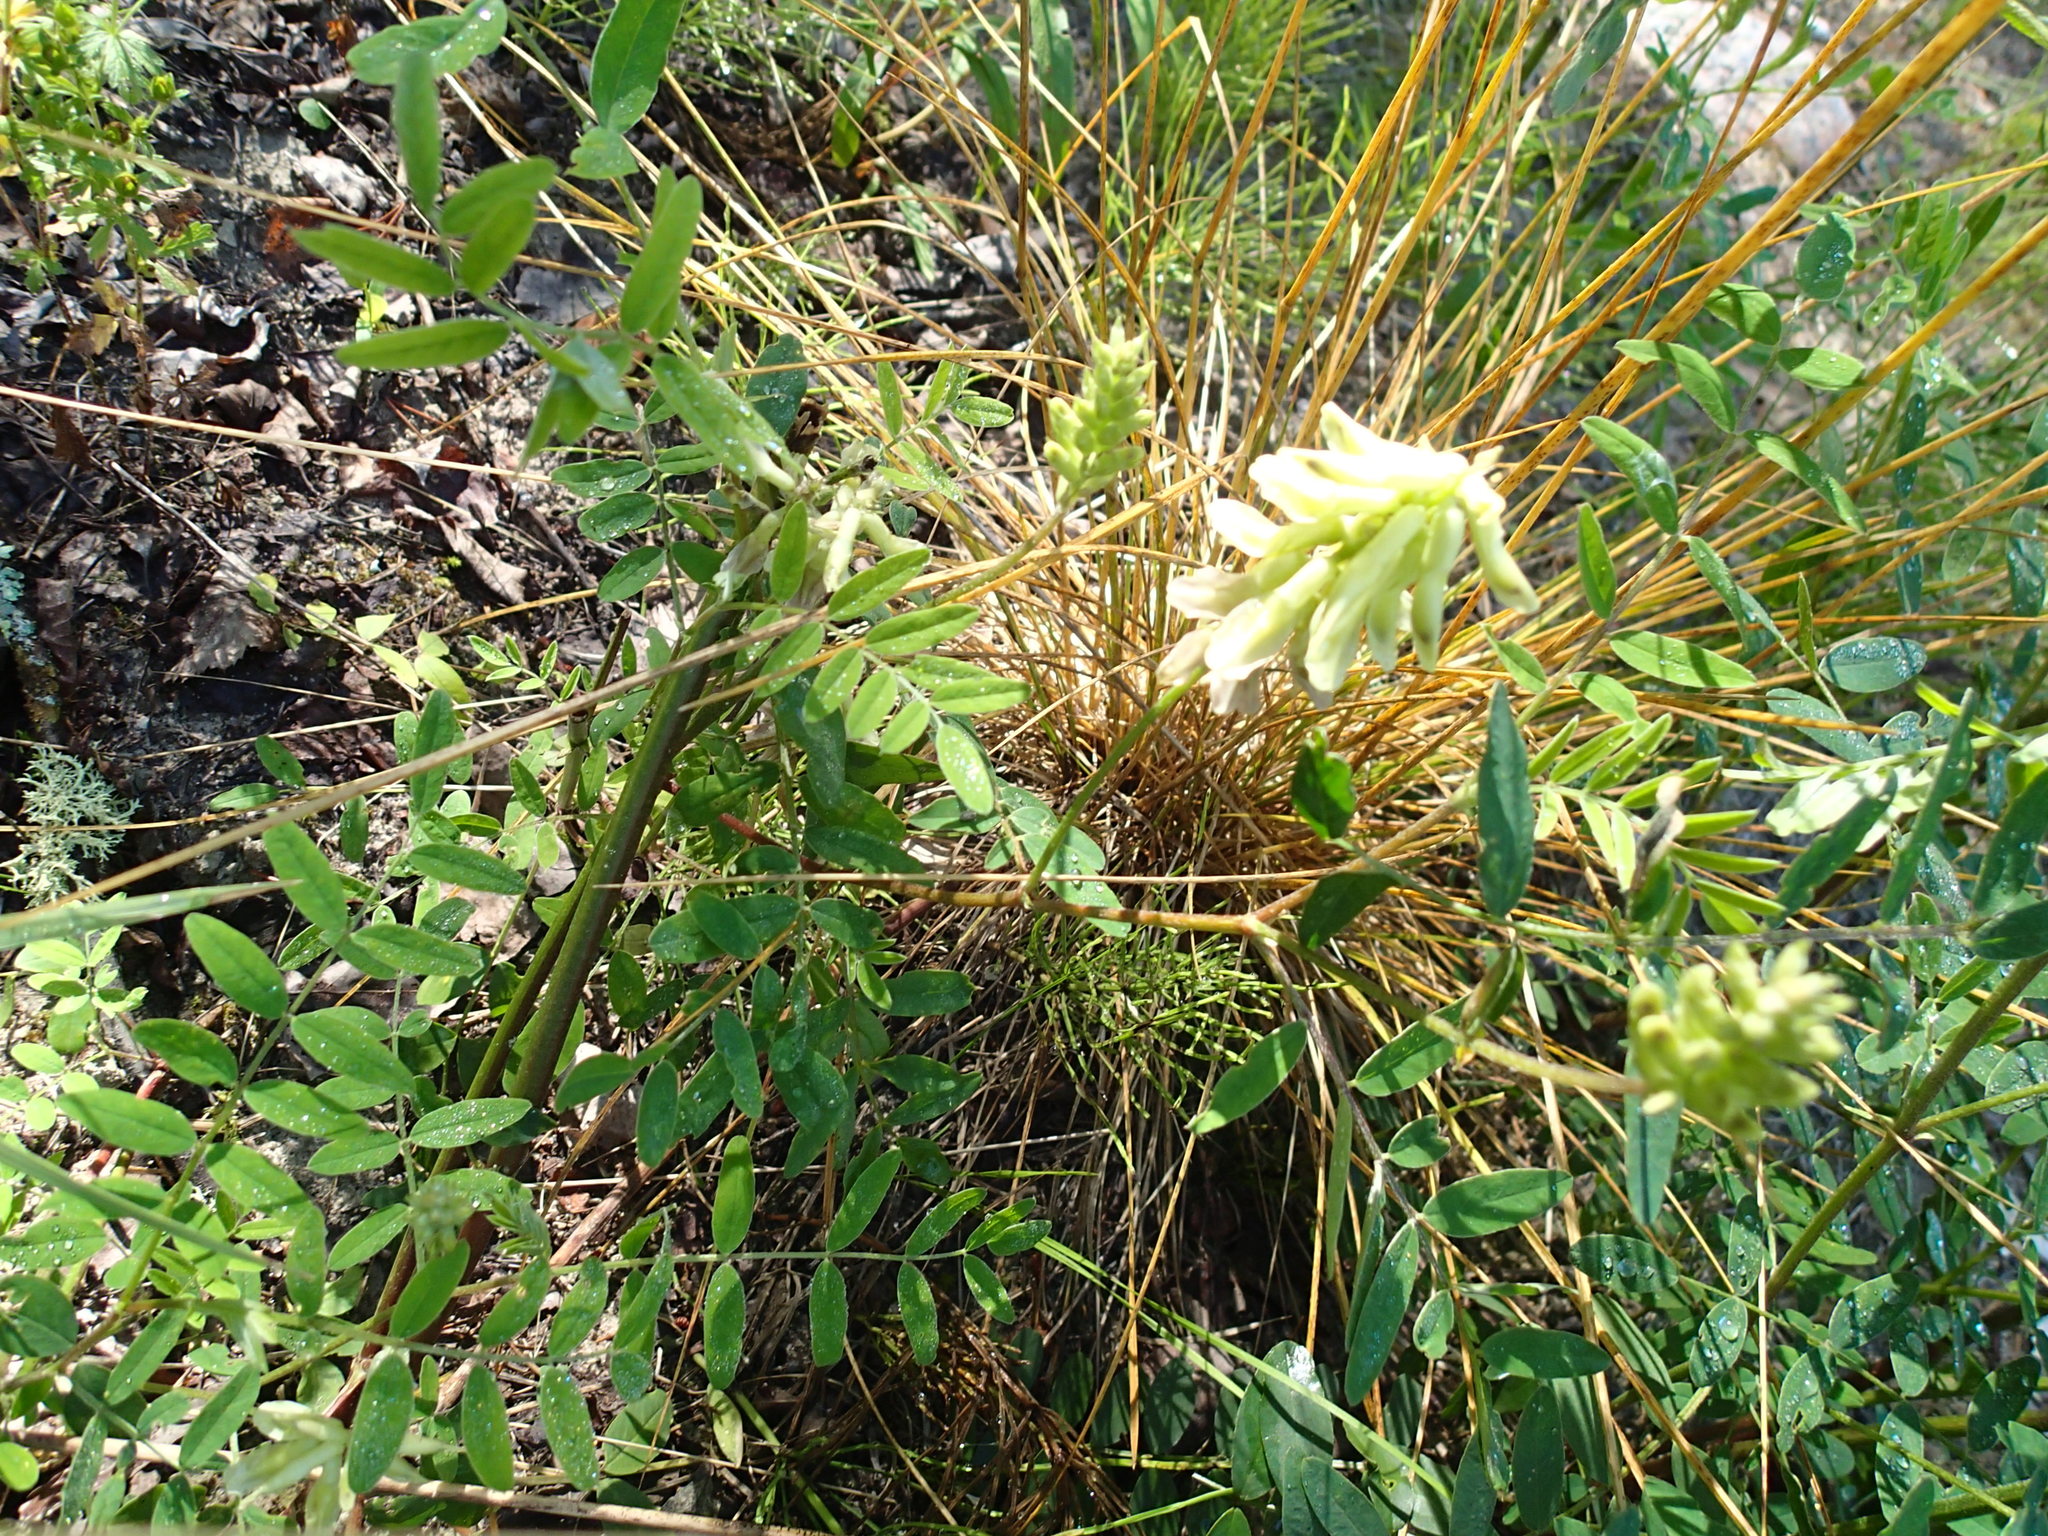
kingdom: Plantae
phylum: Tracheophyta
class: Magnoliopsida
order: Fabales
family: Fabaceae
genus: Astragalus
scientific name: Astragalus canadensis
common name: Canada milk-vetch
